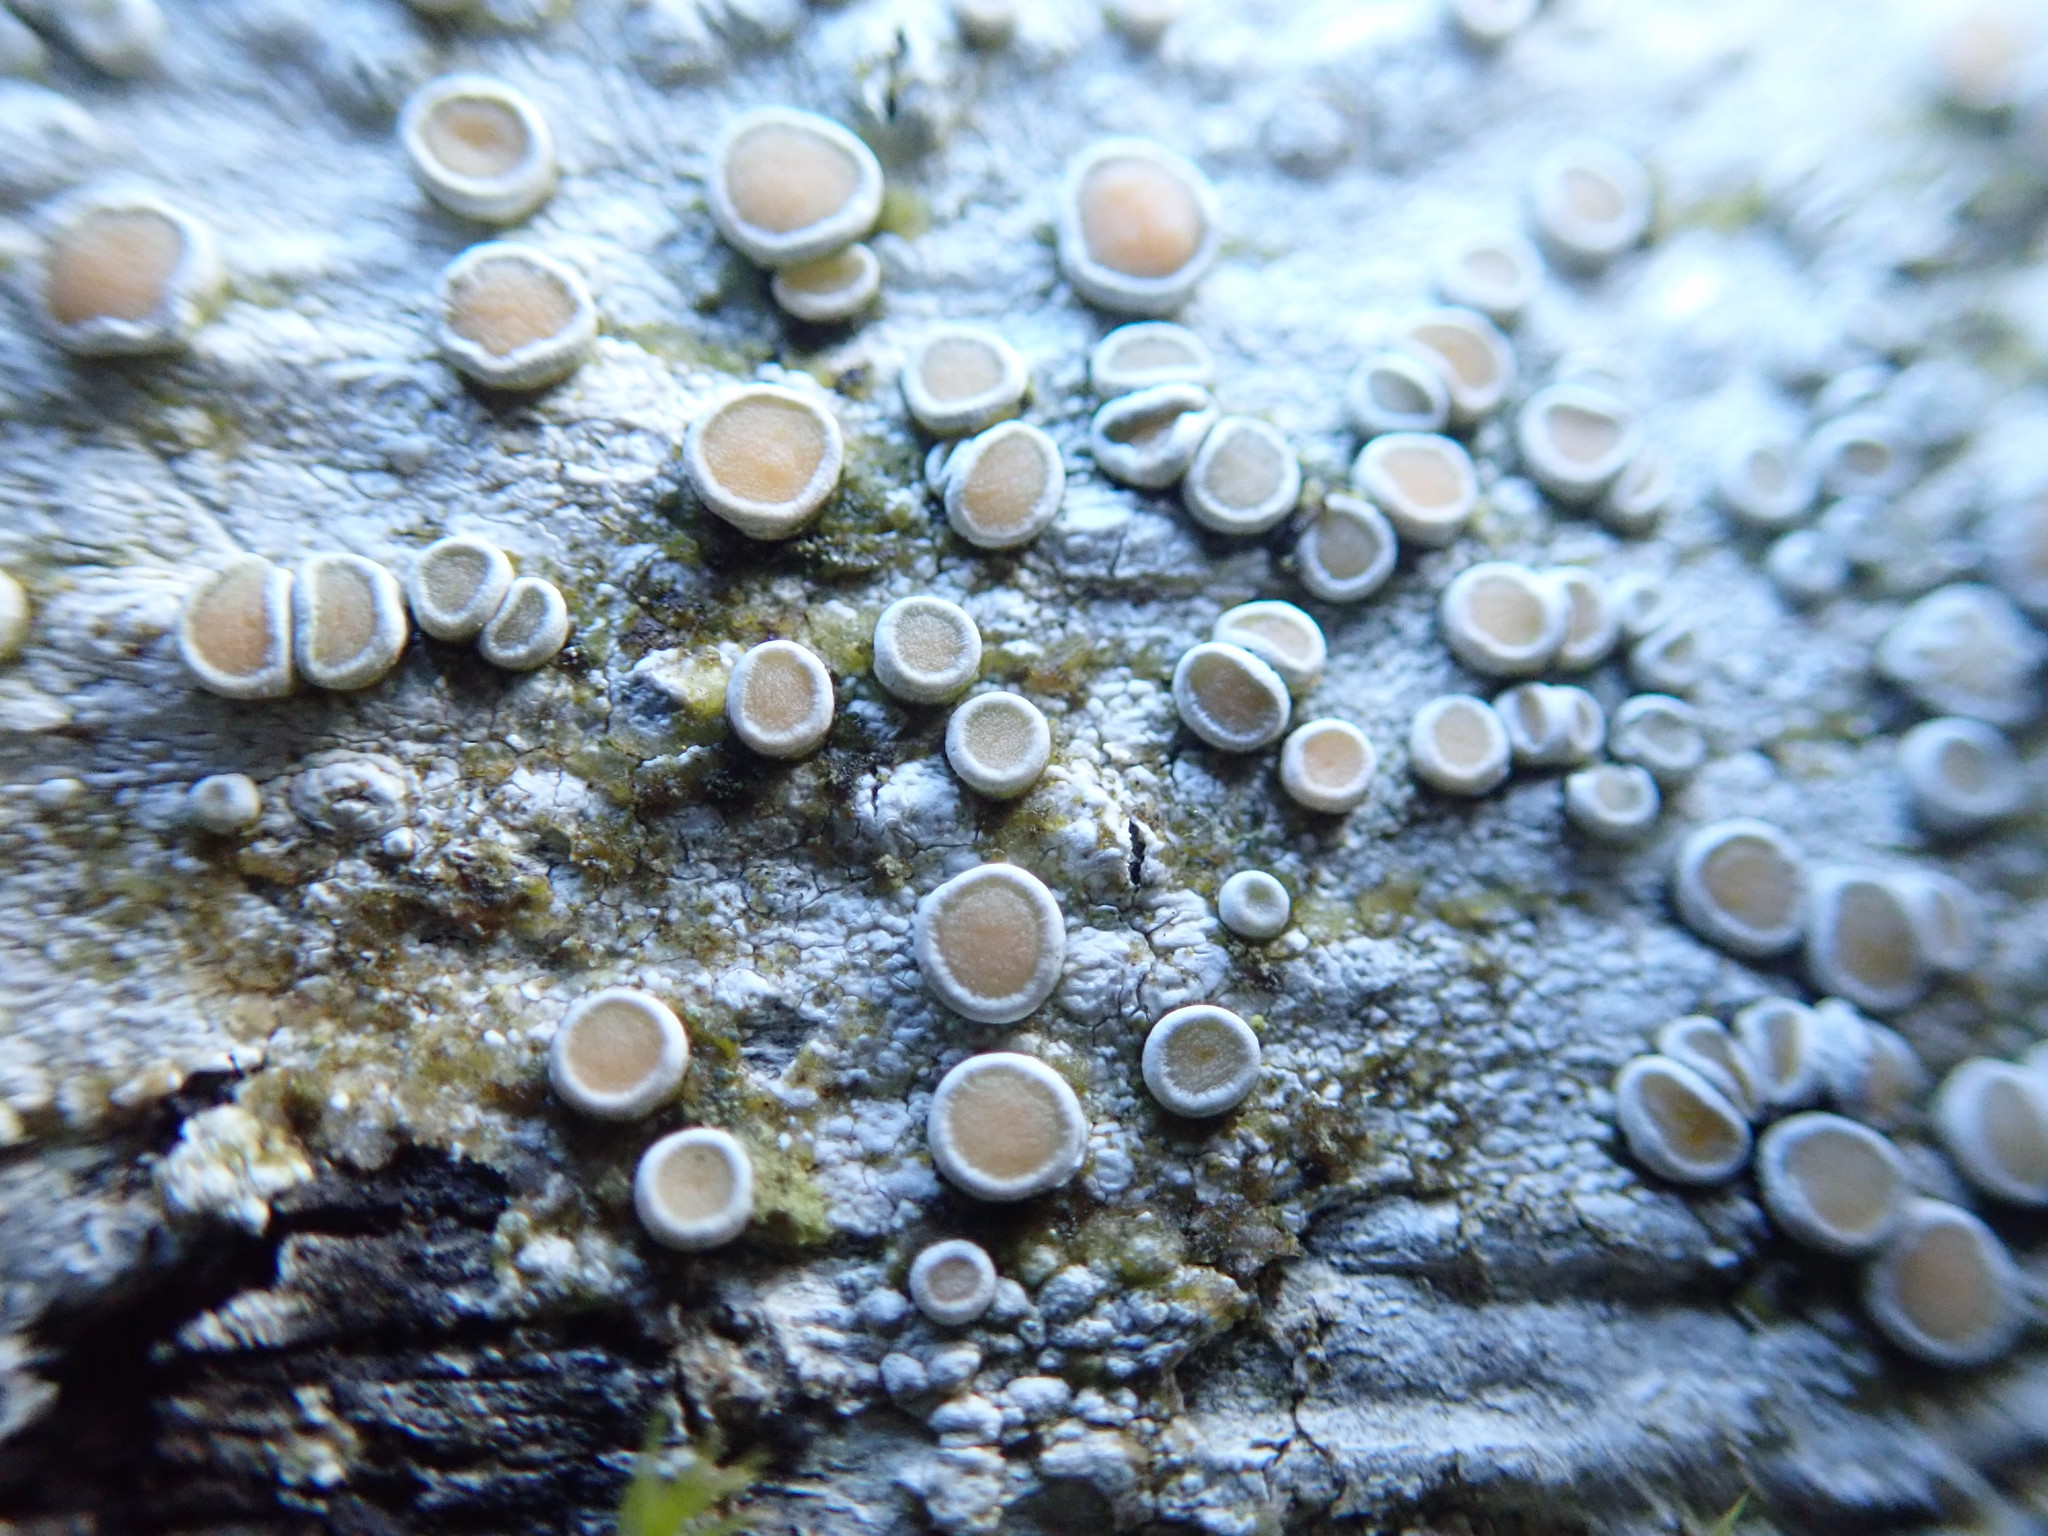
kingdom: Fungi
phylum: Ascomycota
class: Lecanoromycetes
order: Pertusariales
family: Ochrolechiaceae
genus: Ochrolechia
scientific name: Ochrolechia laevigata
